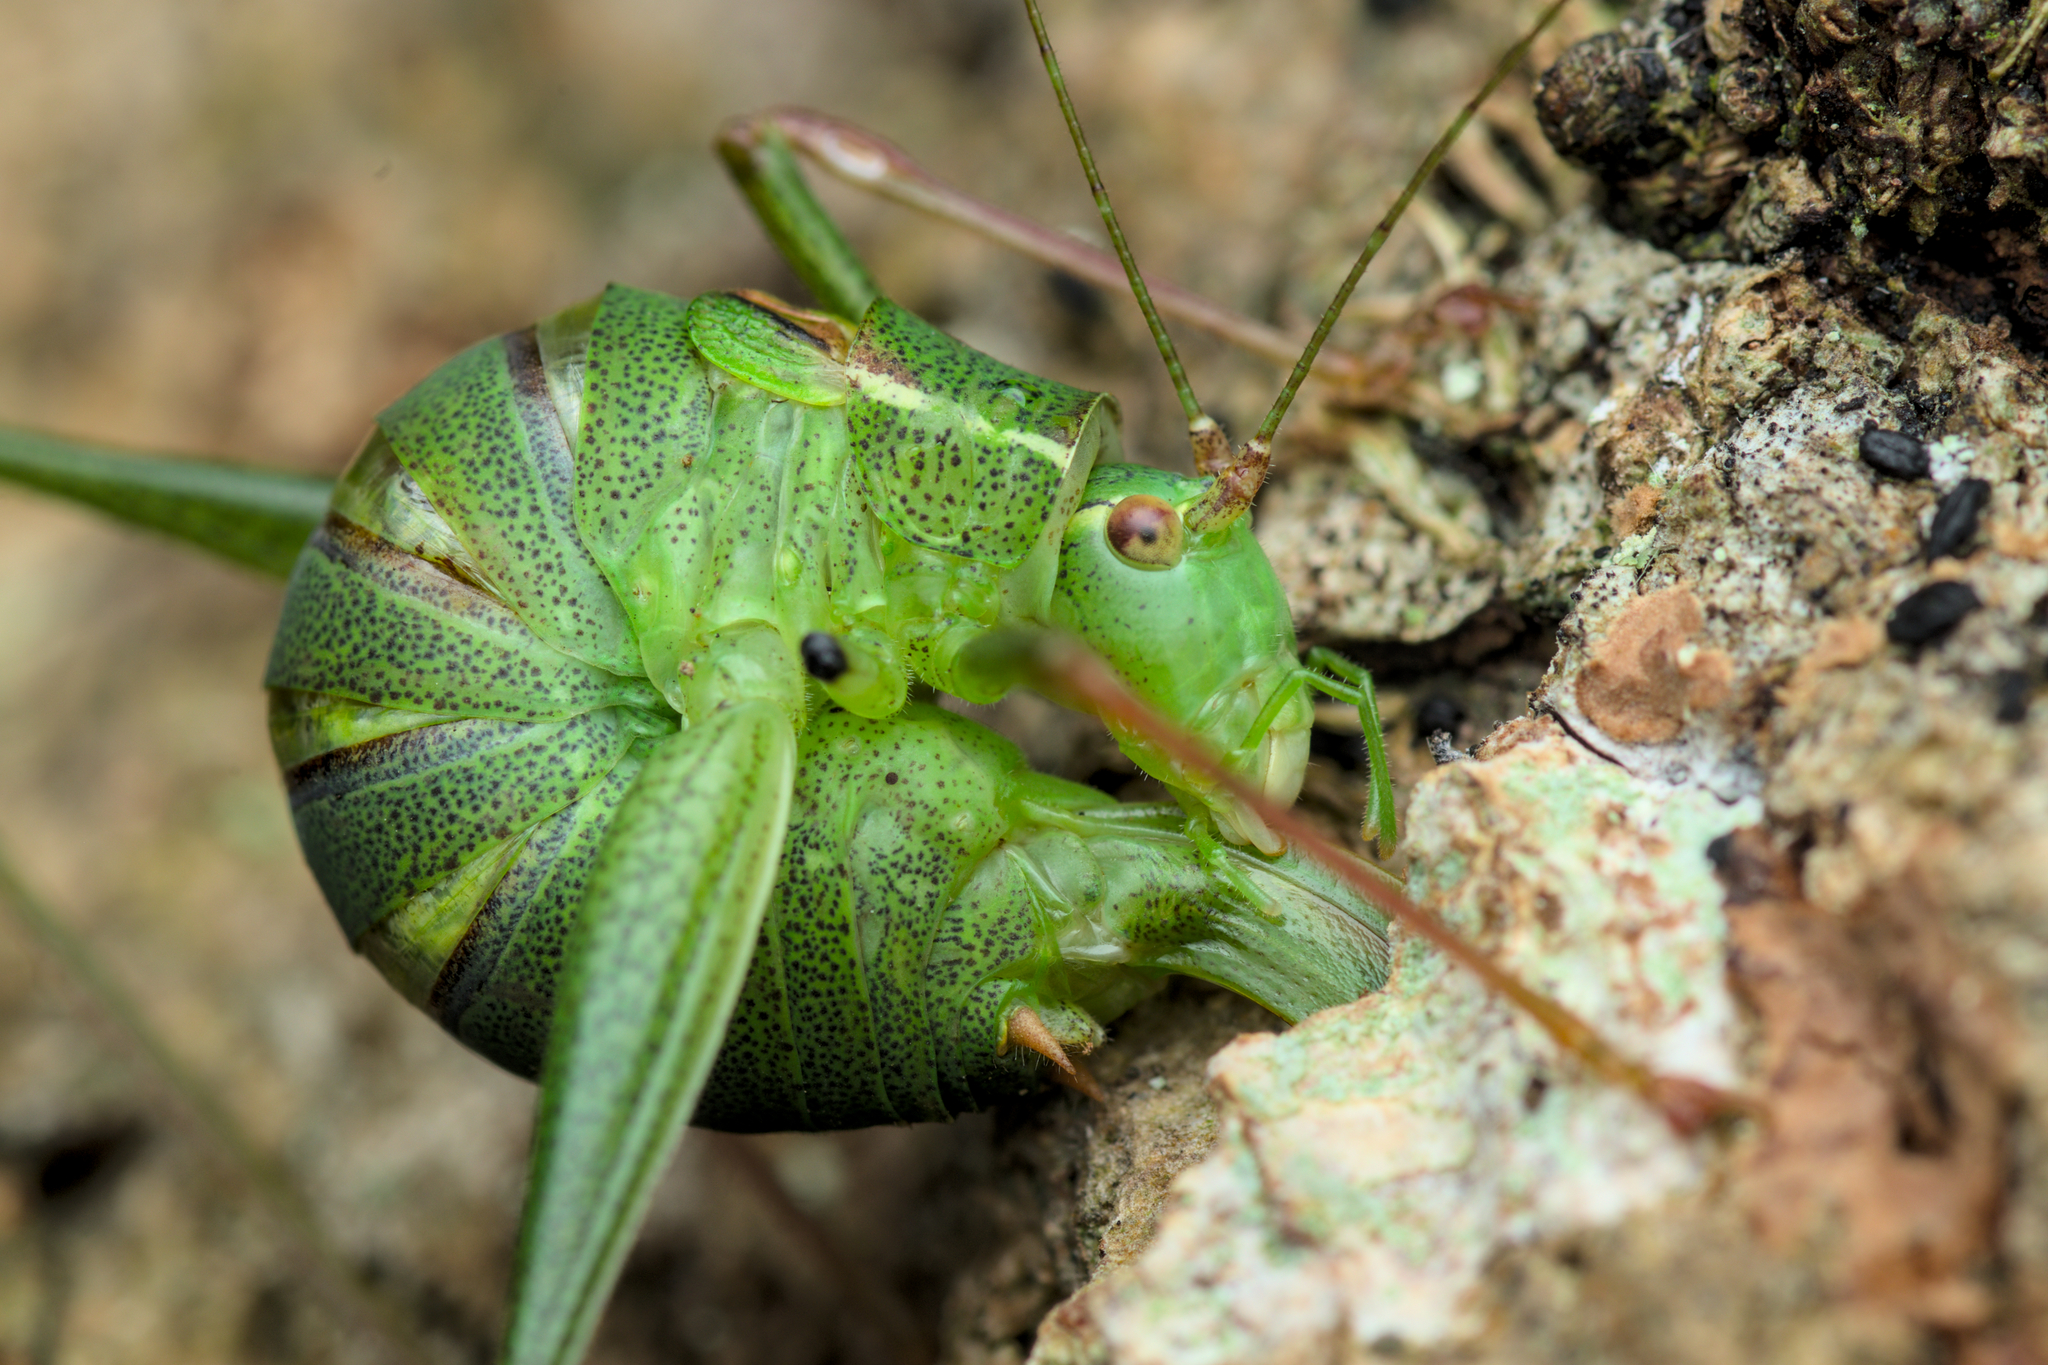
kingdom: Animalia
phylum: Arthropoda
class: Insecta
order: Orthoptera
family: Tettigoniidae
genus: Leptophyes
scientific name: Leptophyes punctatissima
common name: Speckled bush-cricket
